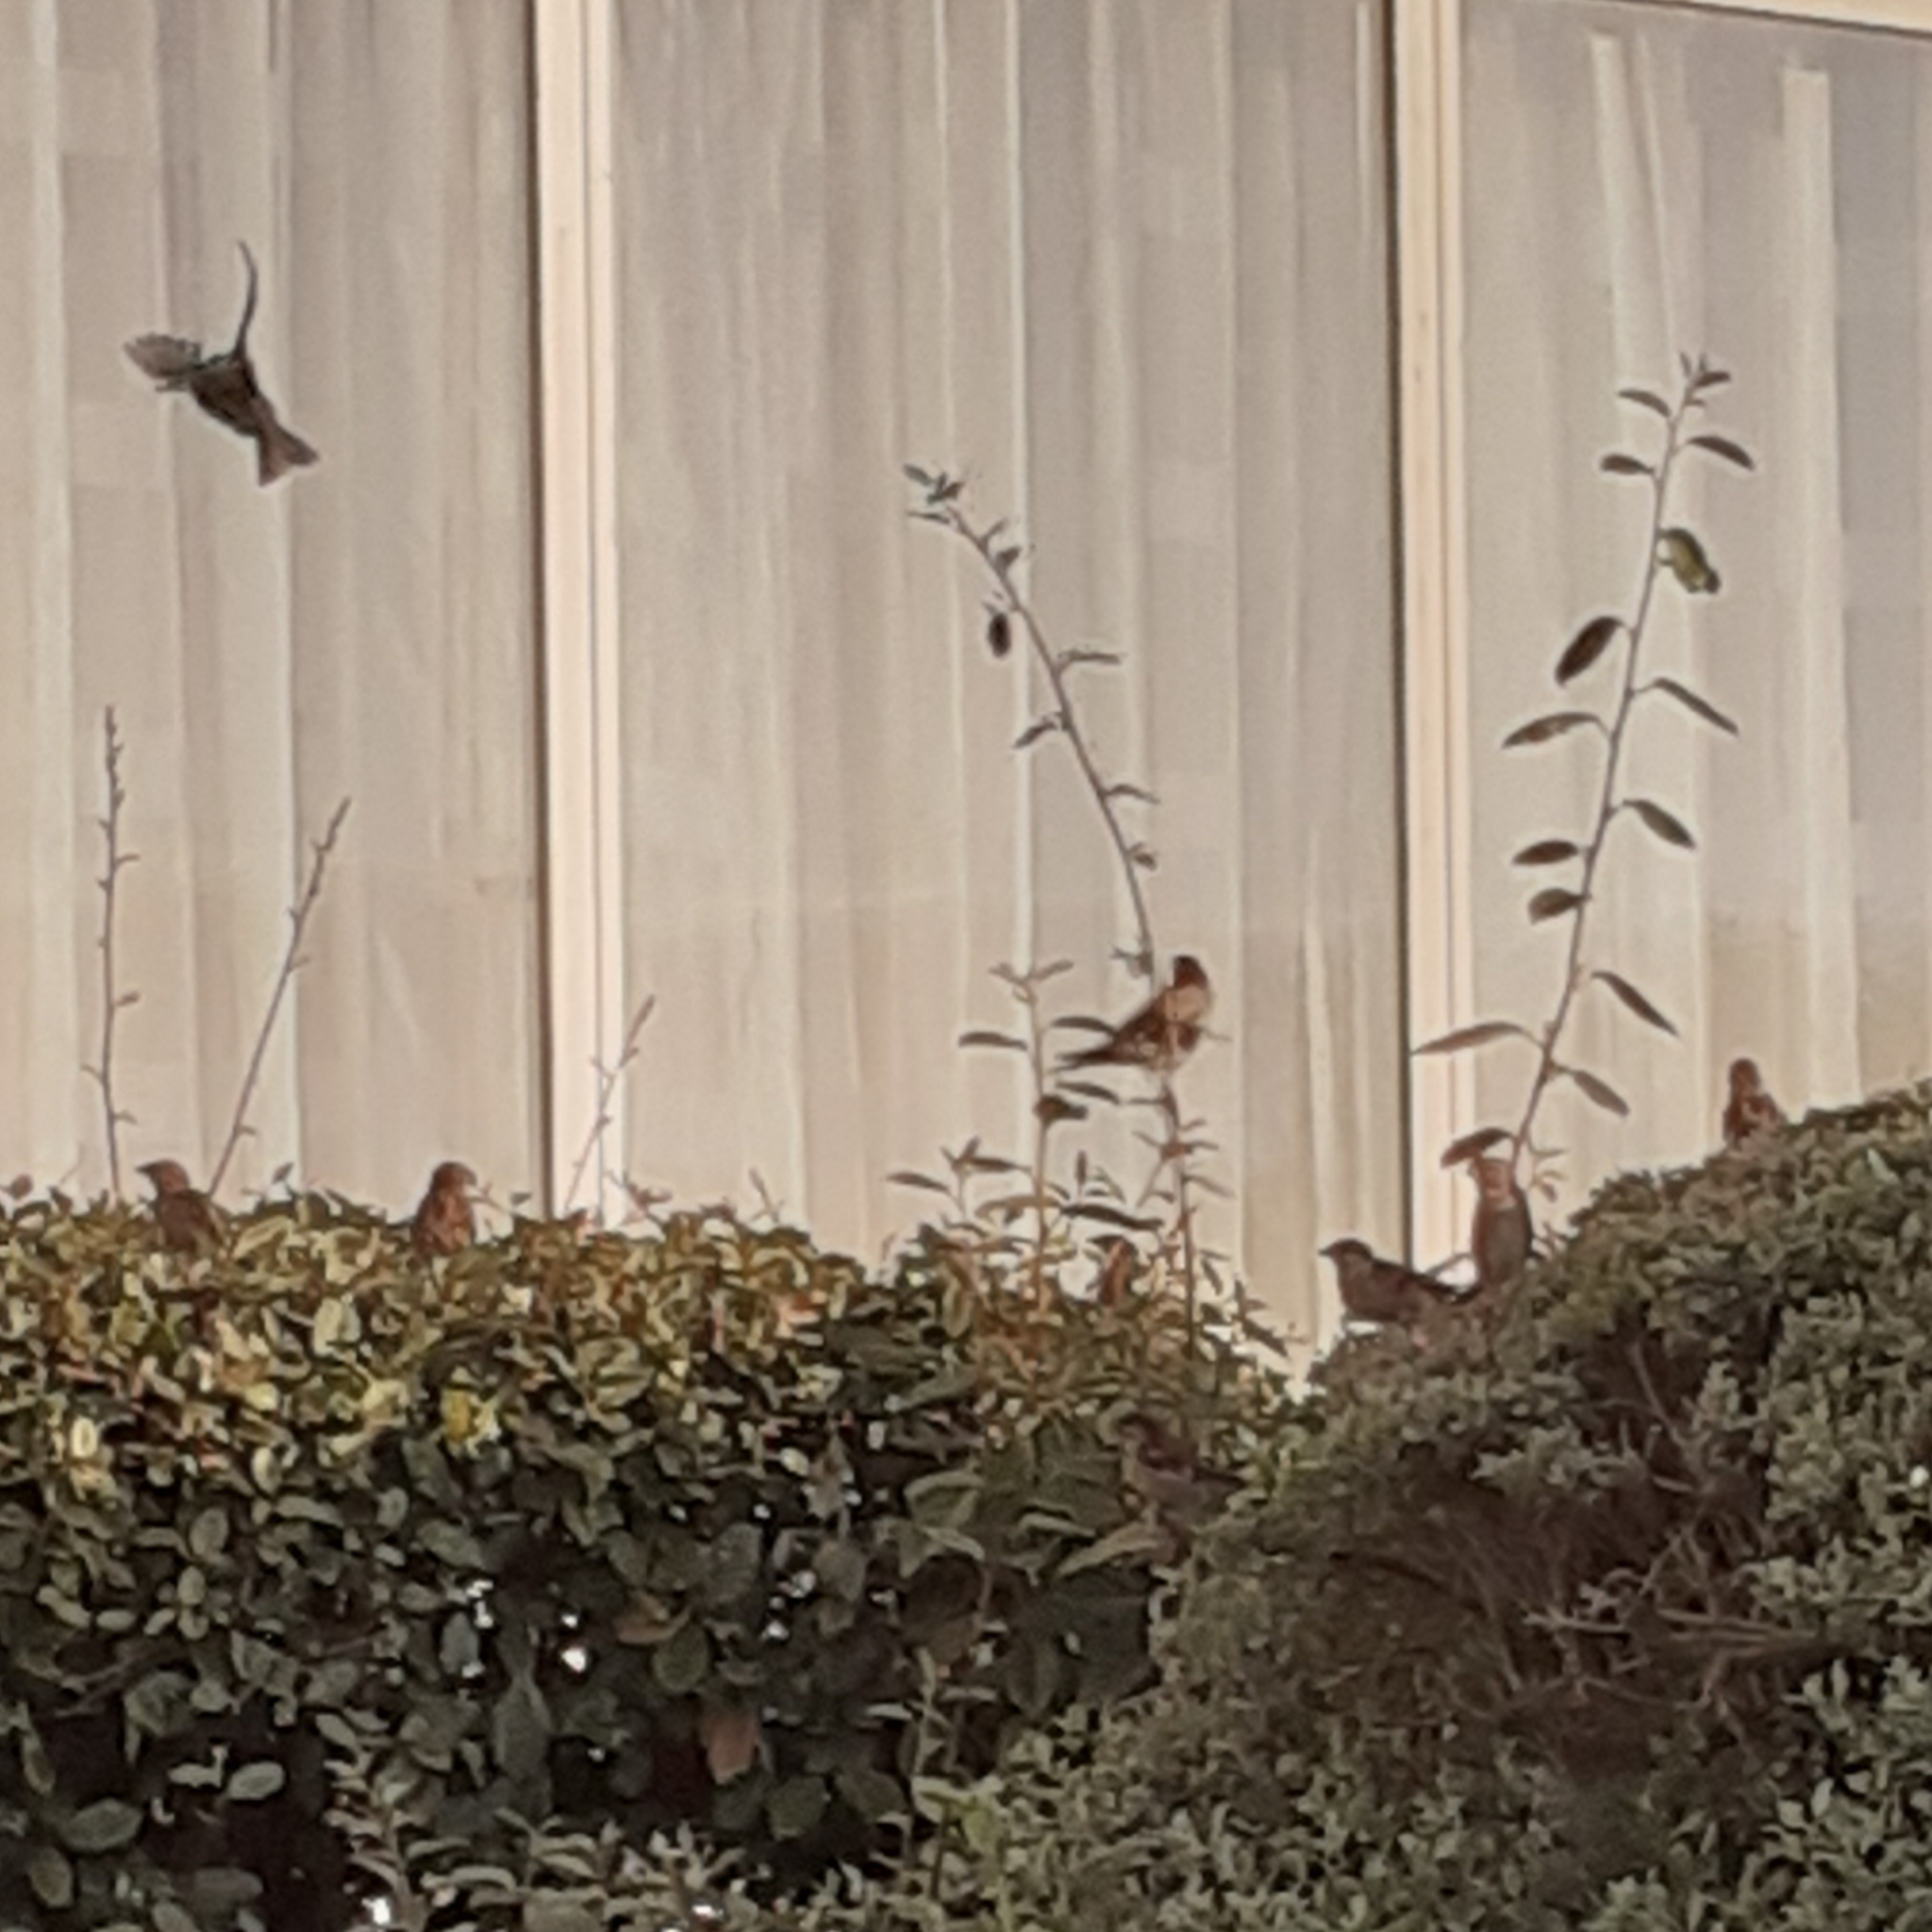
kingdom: Animalia
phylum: Chordata
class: Aves
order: Passeriformes
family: Passeridae
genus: Passer
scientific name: Passer domesticus
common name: House sparrow
